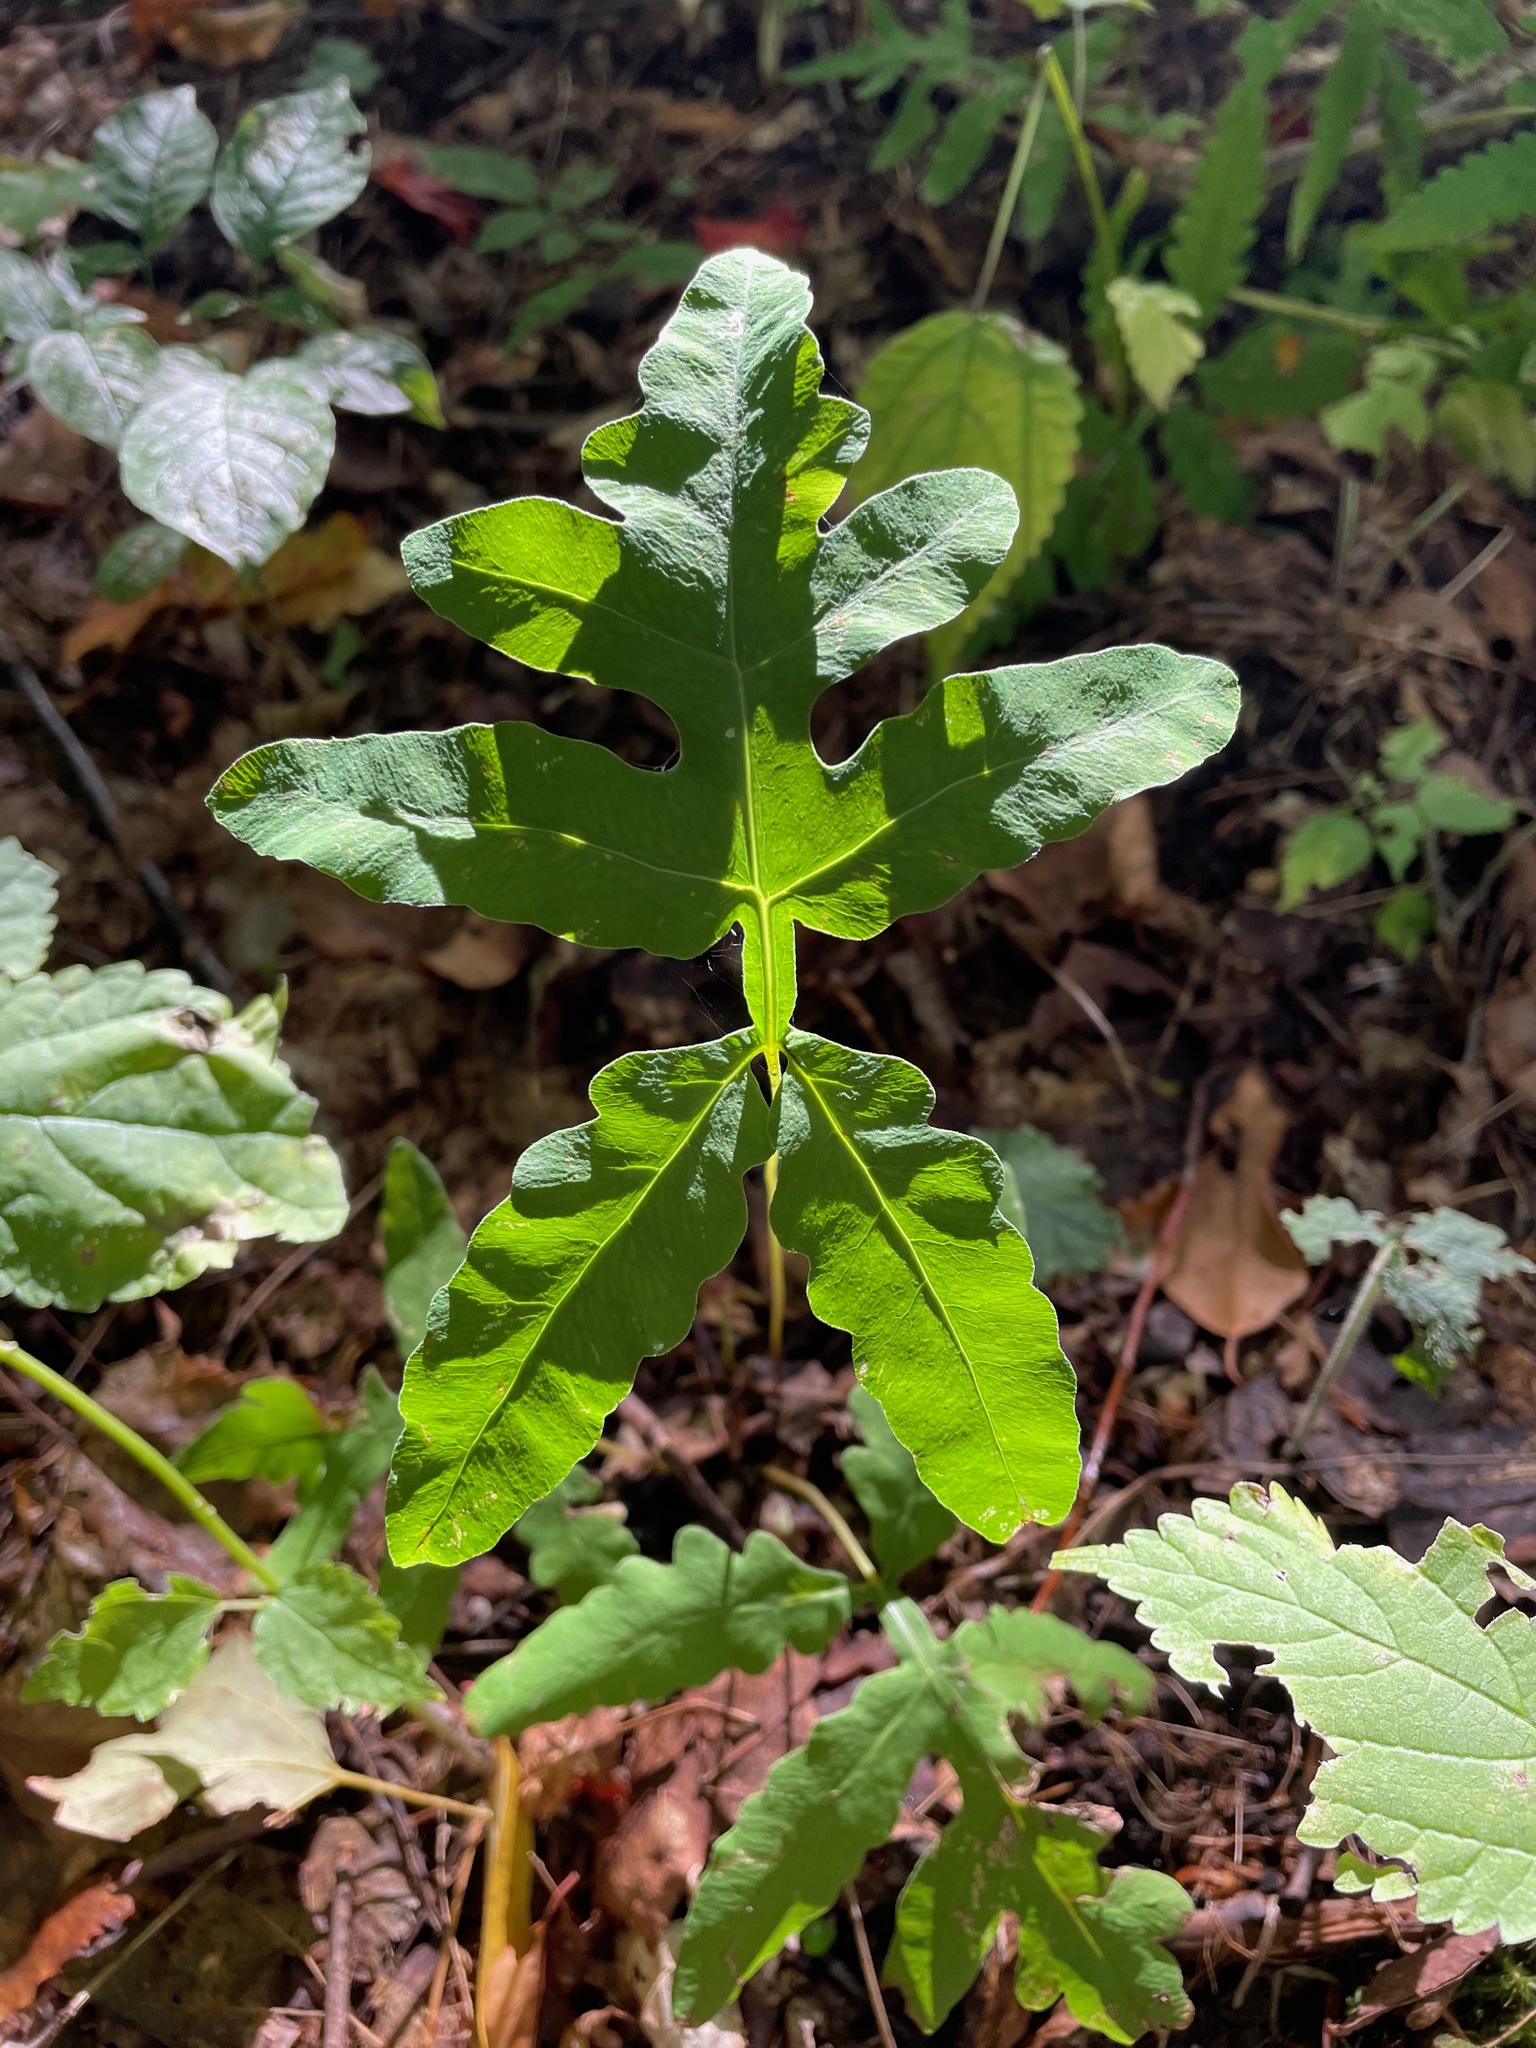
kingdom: Plantae
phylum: Tracheophyta
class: Polypodiopsida
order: Polypodiales
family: Onocleaceae
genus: Onoclea
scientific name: Onoclea sensibilis
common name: Sensitive fern
